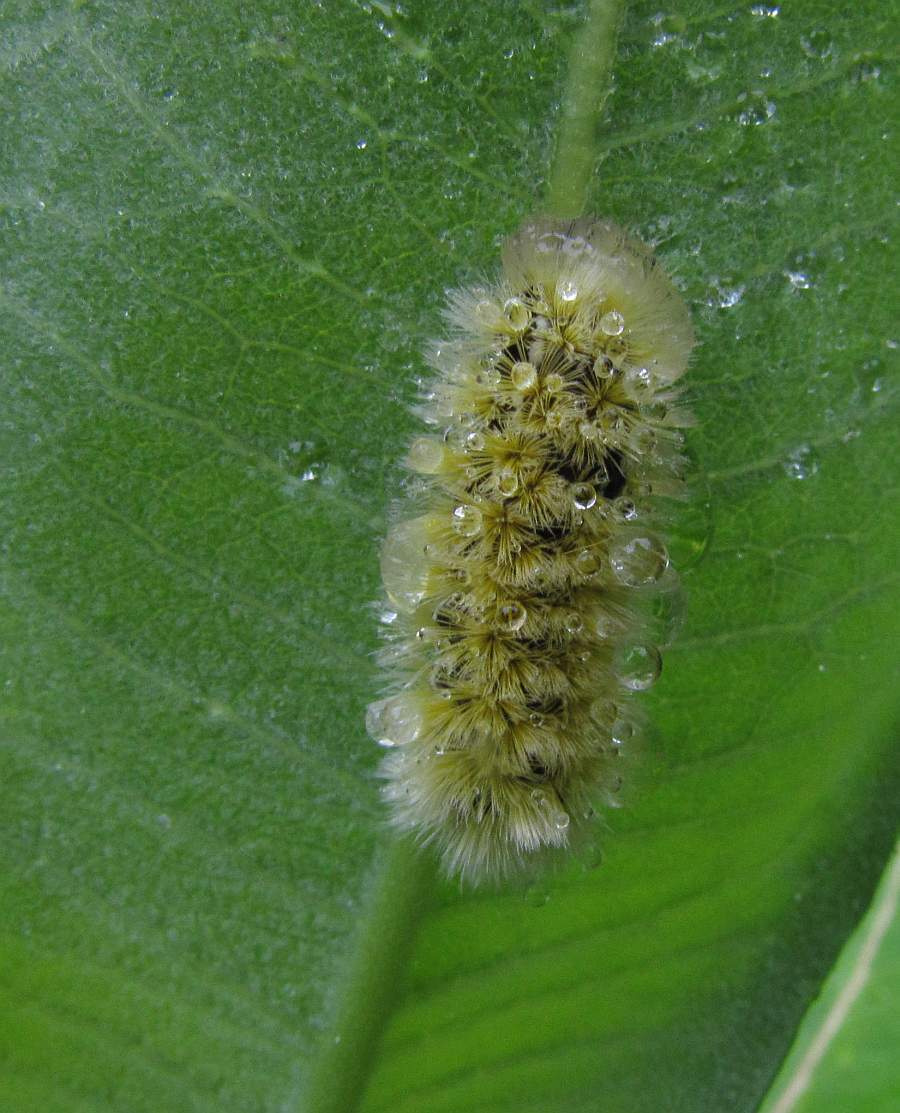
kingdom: Animalia
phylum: Arthropoda
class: Insecta
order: Lepidoptera
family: Erebidae
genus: Ctenucha
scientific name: Ctenucha virginica
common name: Virginia ctenucha moth
